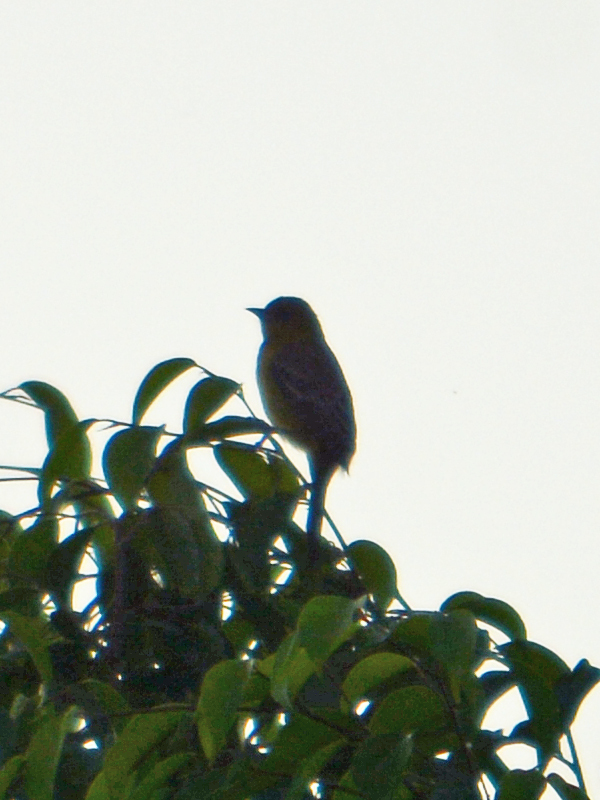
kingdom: Animalia
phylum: Chordata
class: Aves
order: Passeriformes
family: Icteridae
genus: Icterus
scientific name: Icterus galbula
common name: Baltimore oriole
